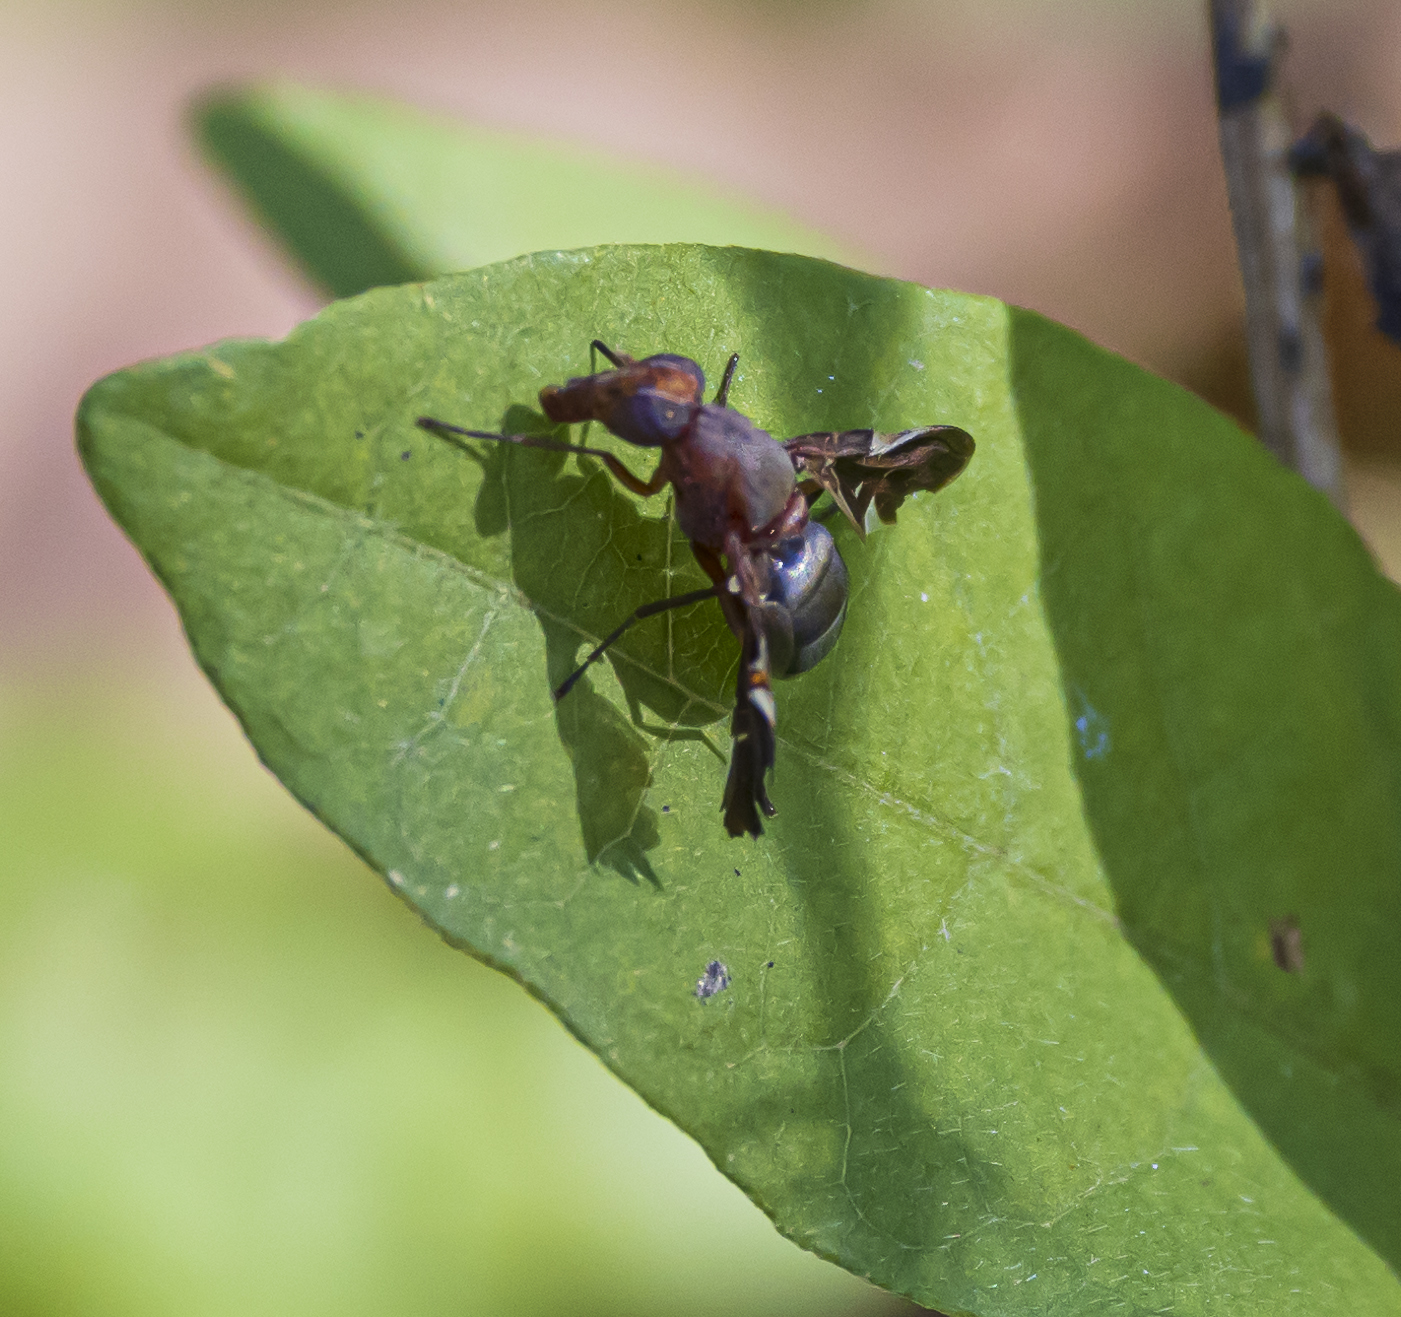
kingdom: Animalia
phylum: Arthropoda
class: Insecta
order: Diptera
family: Ulidiidae
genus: Delphinia
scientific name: Delphinia picta
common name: Common picture-winged fly
